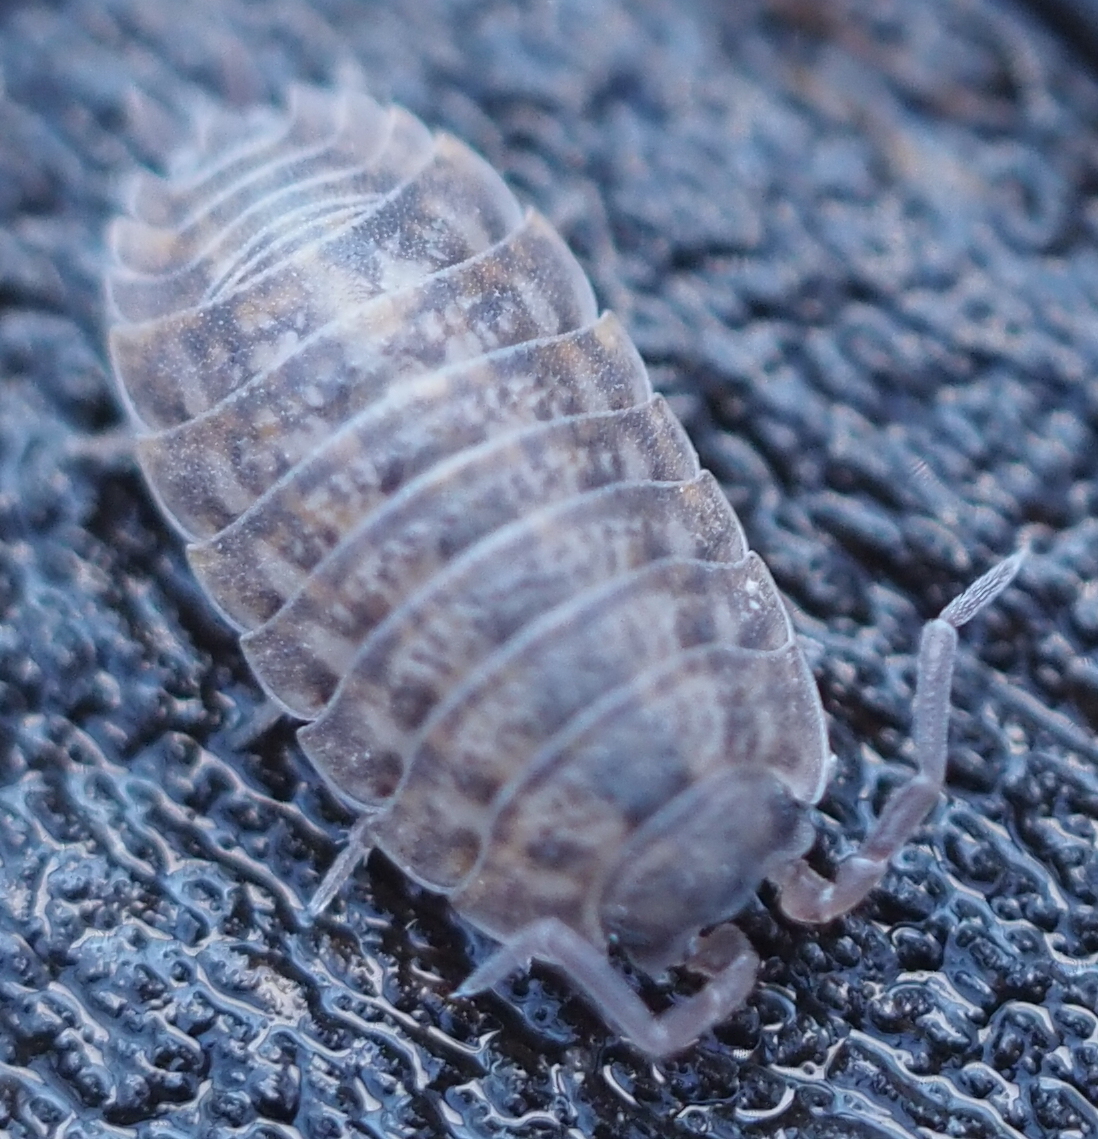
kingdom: Animalia
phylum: Arthropoda
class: Malacostraca
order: Isopoda
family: Trachelipodidae
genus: Trachelipus
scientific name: Trachelipus rathkii
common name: Isopod
